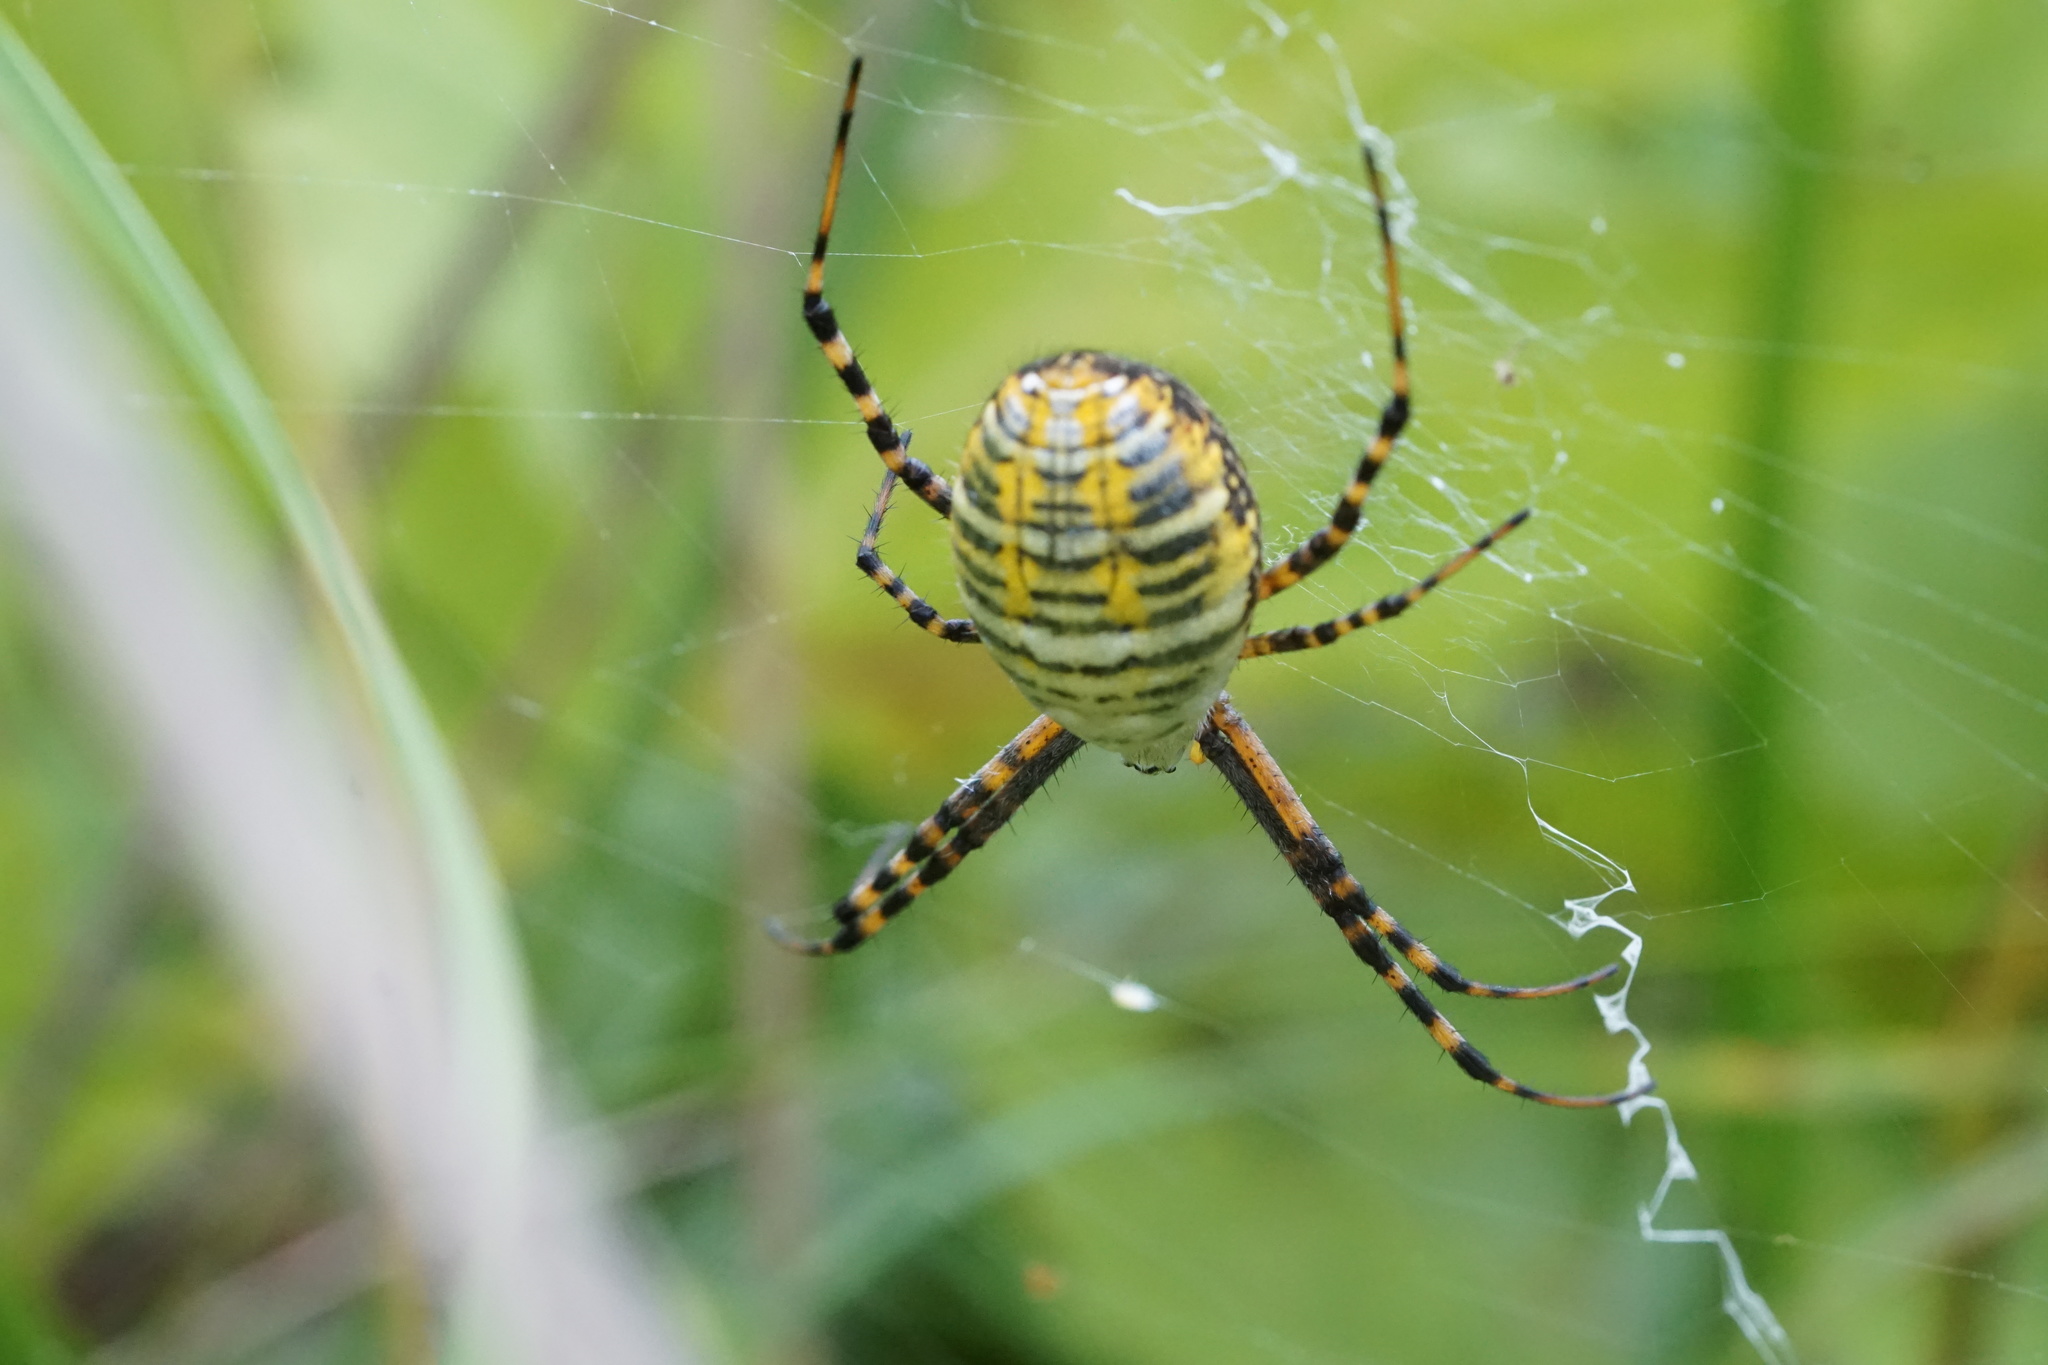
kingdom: Animalia
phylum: Arthropoda
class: Arachnida
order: Araneae
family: Araneidae
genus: Argiope
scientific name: Argiope trifasciata
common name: Banded garden spider
